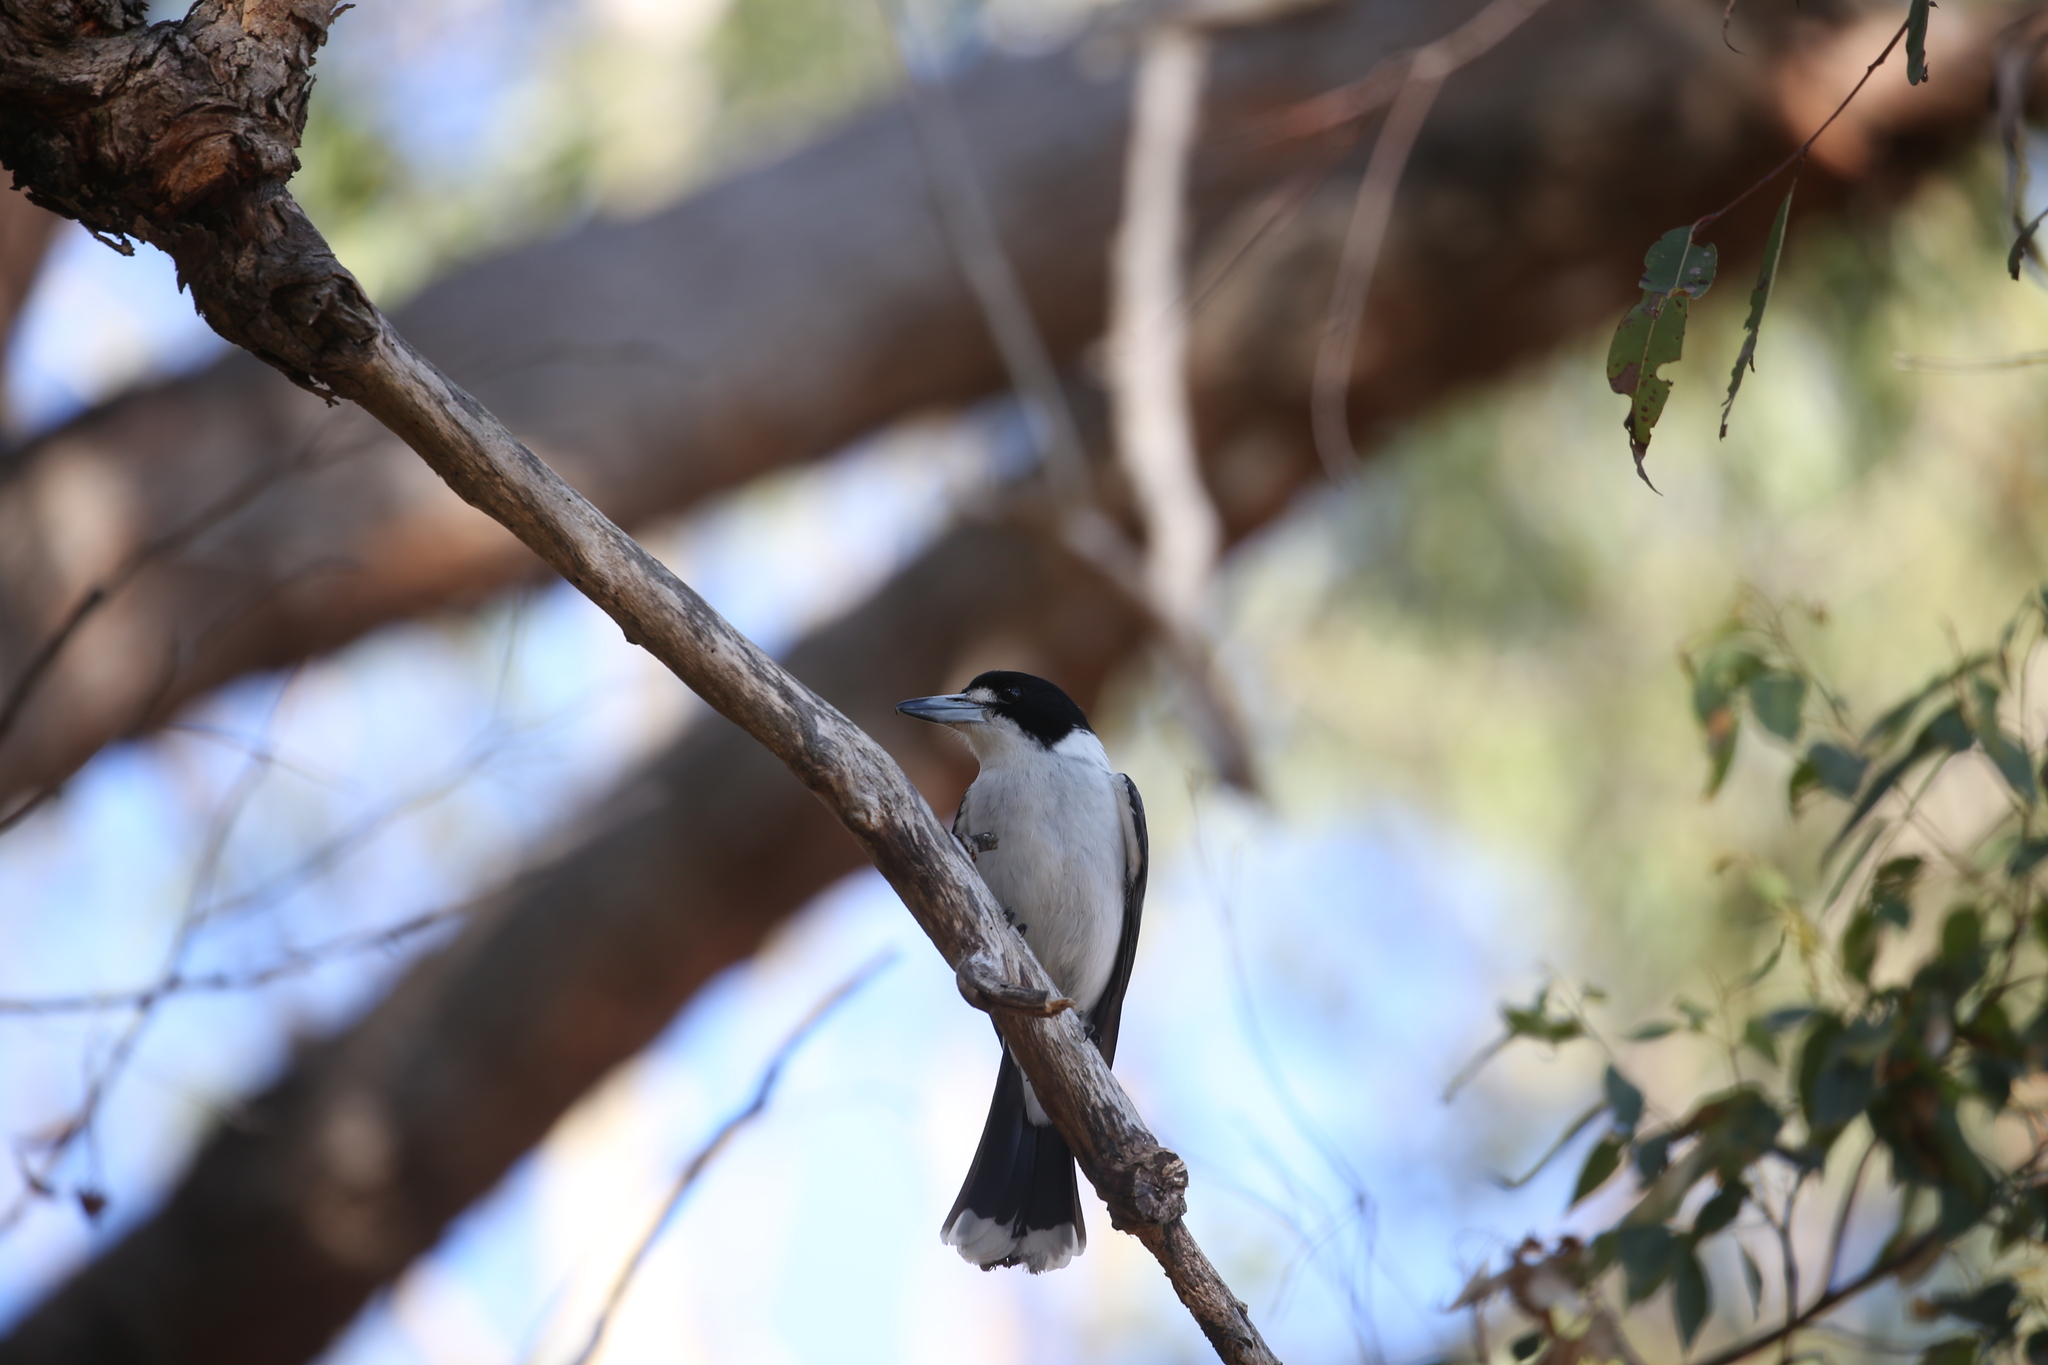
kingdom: Animalia
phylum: Chordata
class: Aves
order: Passeriformes
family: Cracticidae
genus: Cracticus
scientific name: Cracticus torquatus
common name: Grey butcherbird
